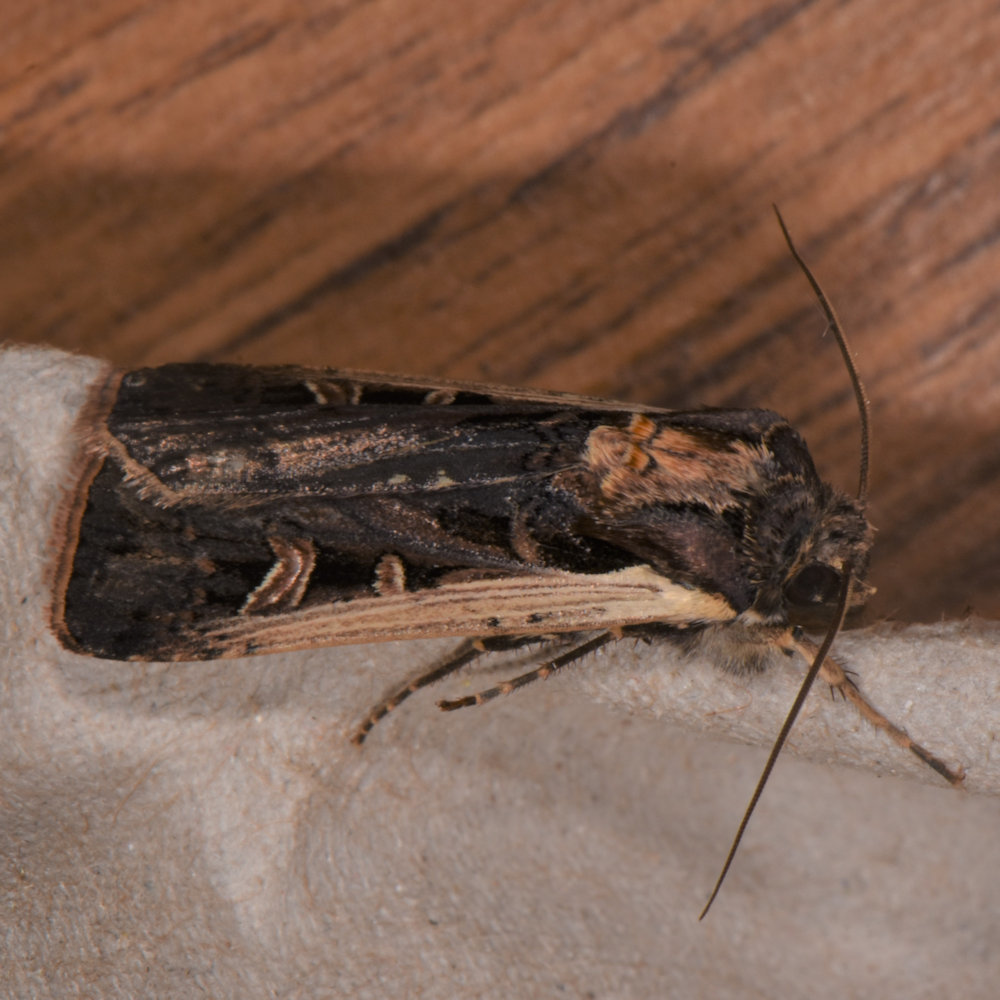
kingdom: Animalia
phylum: Arthropoda
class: Insecta
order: Lepidoptera
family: Noctuidae
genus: Striacosta
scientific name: Striacosta albicosta
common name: Western bean cutworm moth
